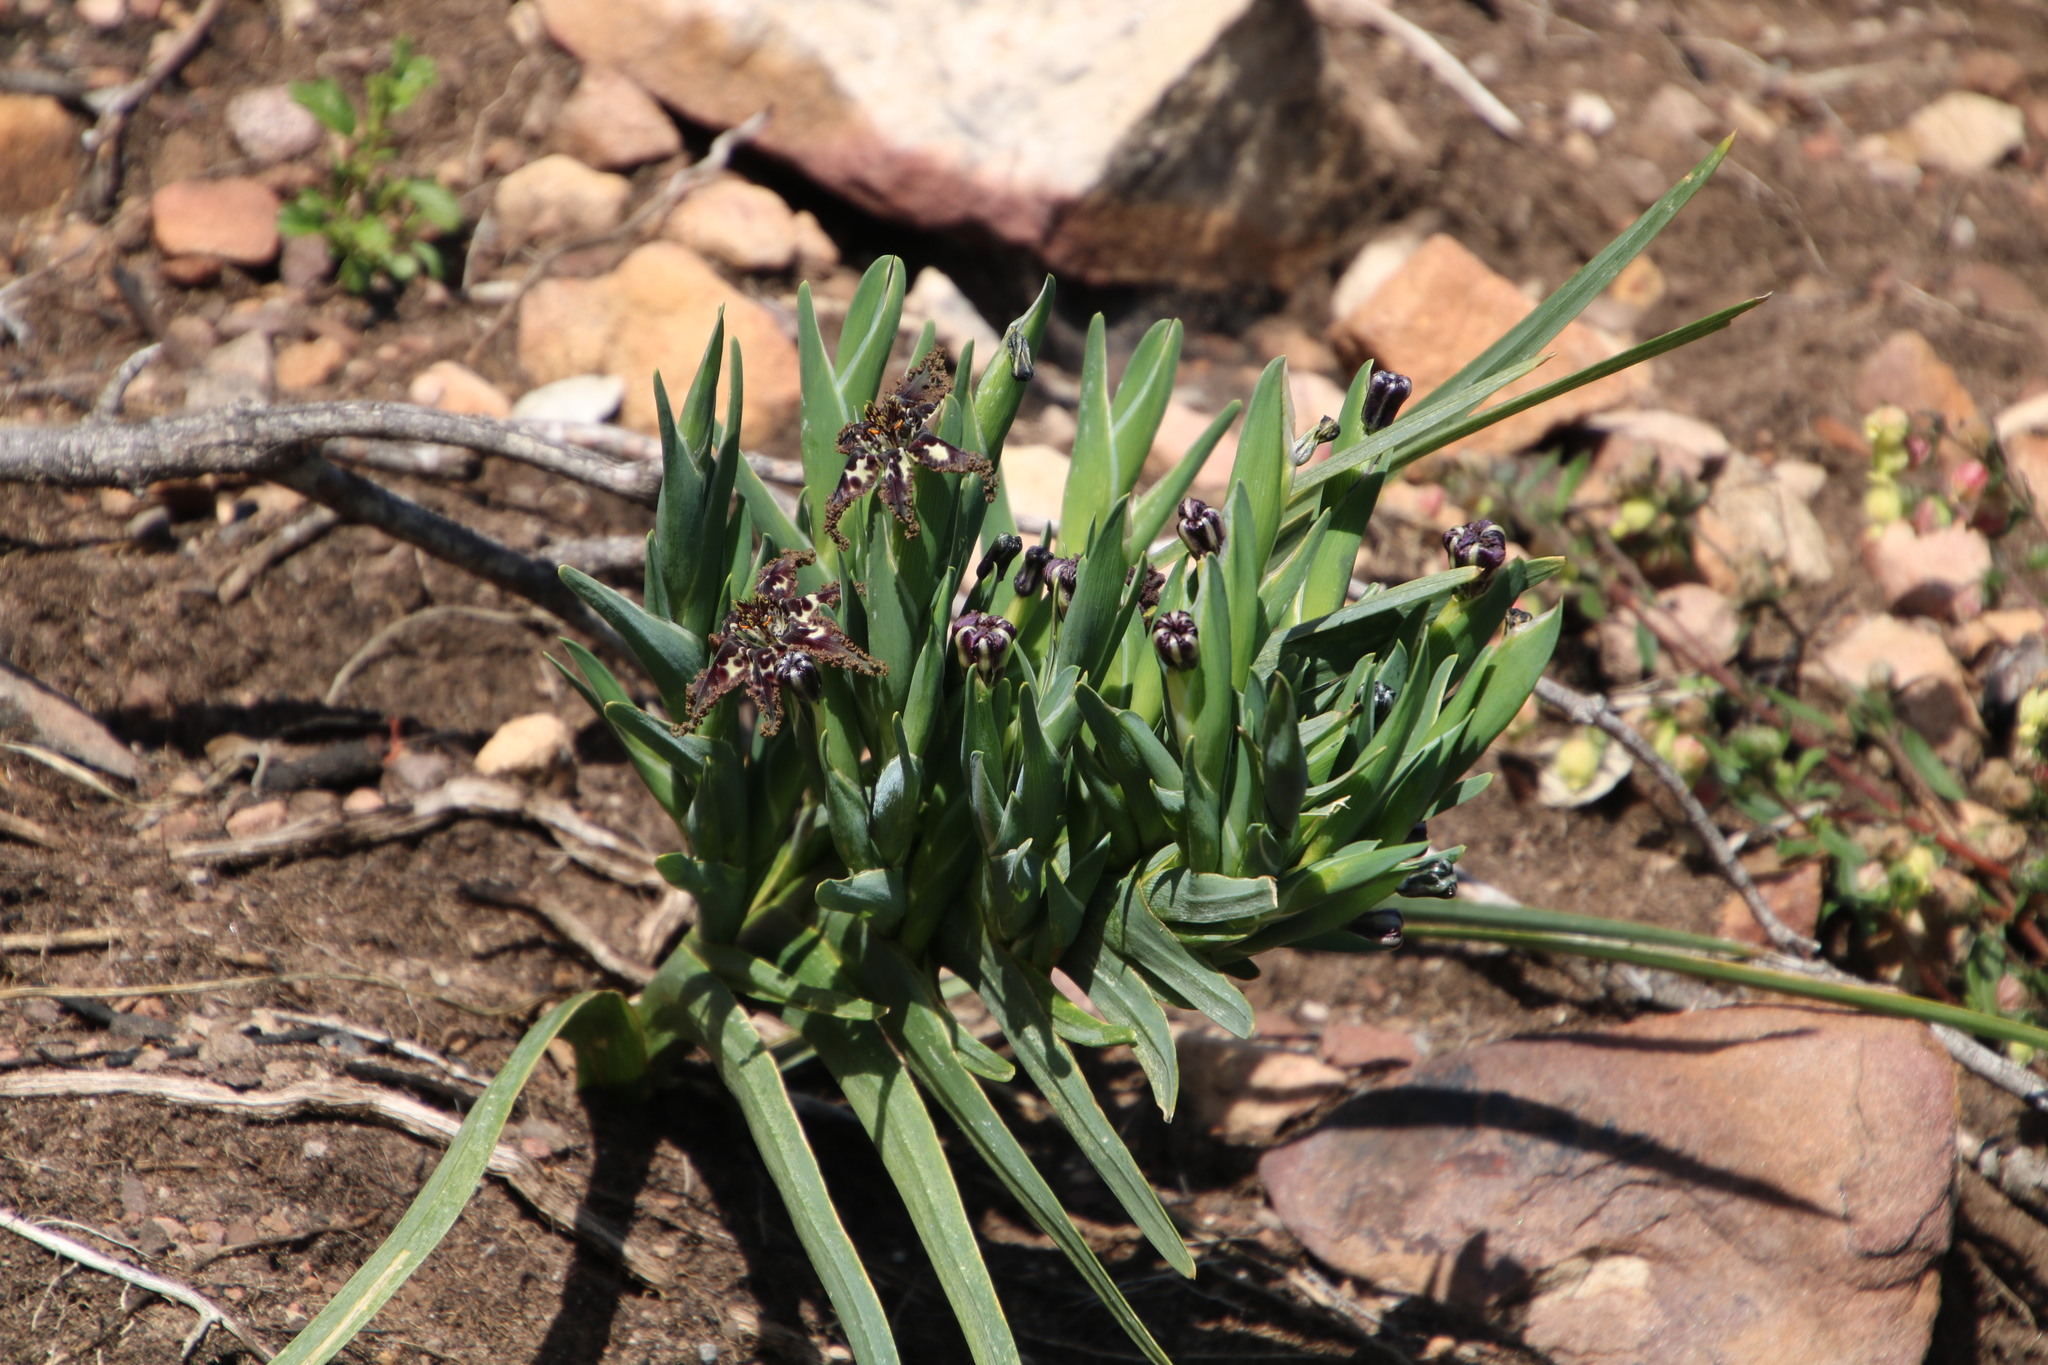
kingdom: Plantae
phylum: Tracheophyta
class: Liliopsida
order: Asparagales
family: Iridaceae
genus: Ferraria
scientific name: Ferraria crispa
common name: Black-flag
